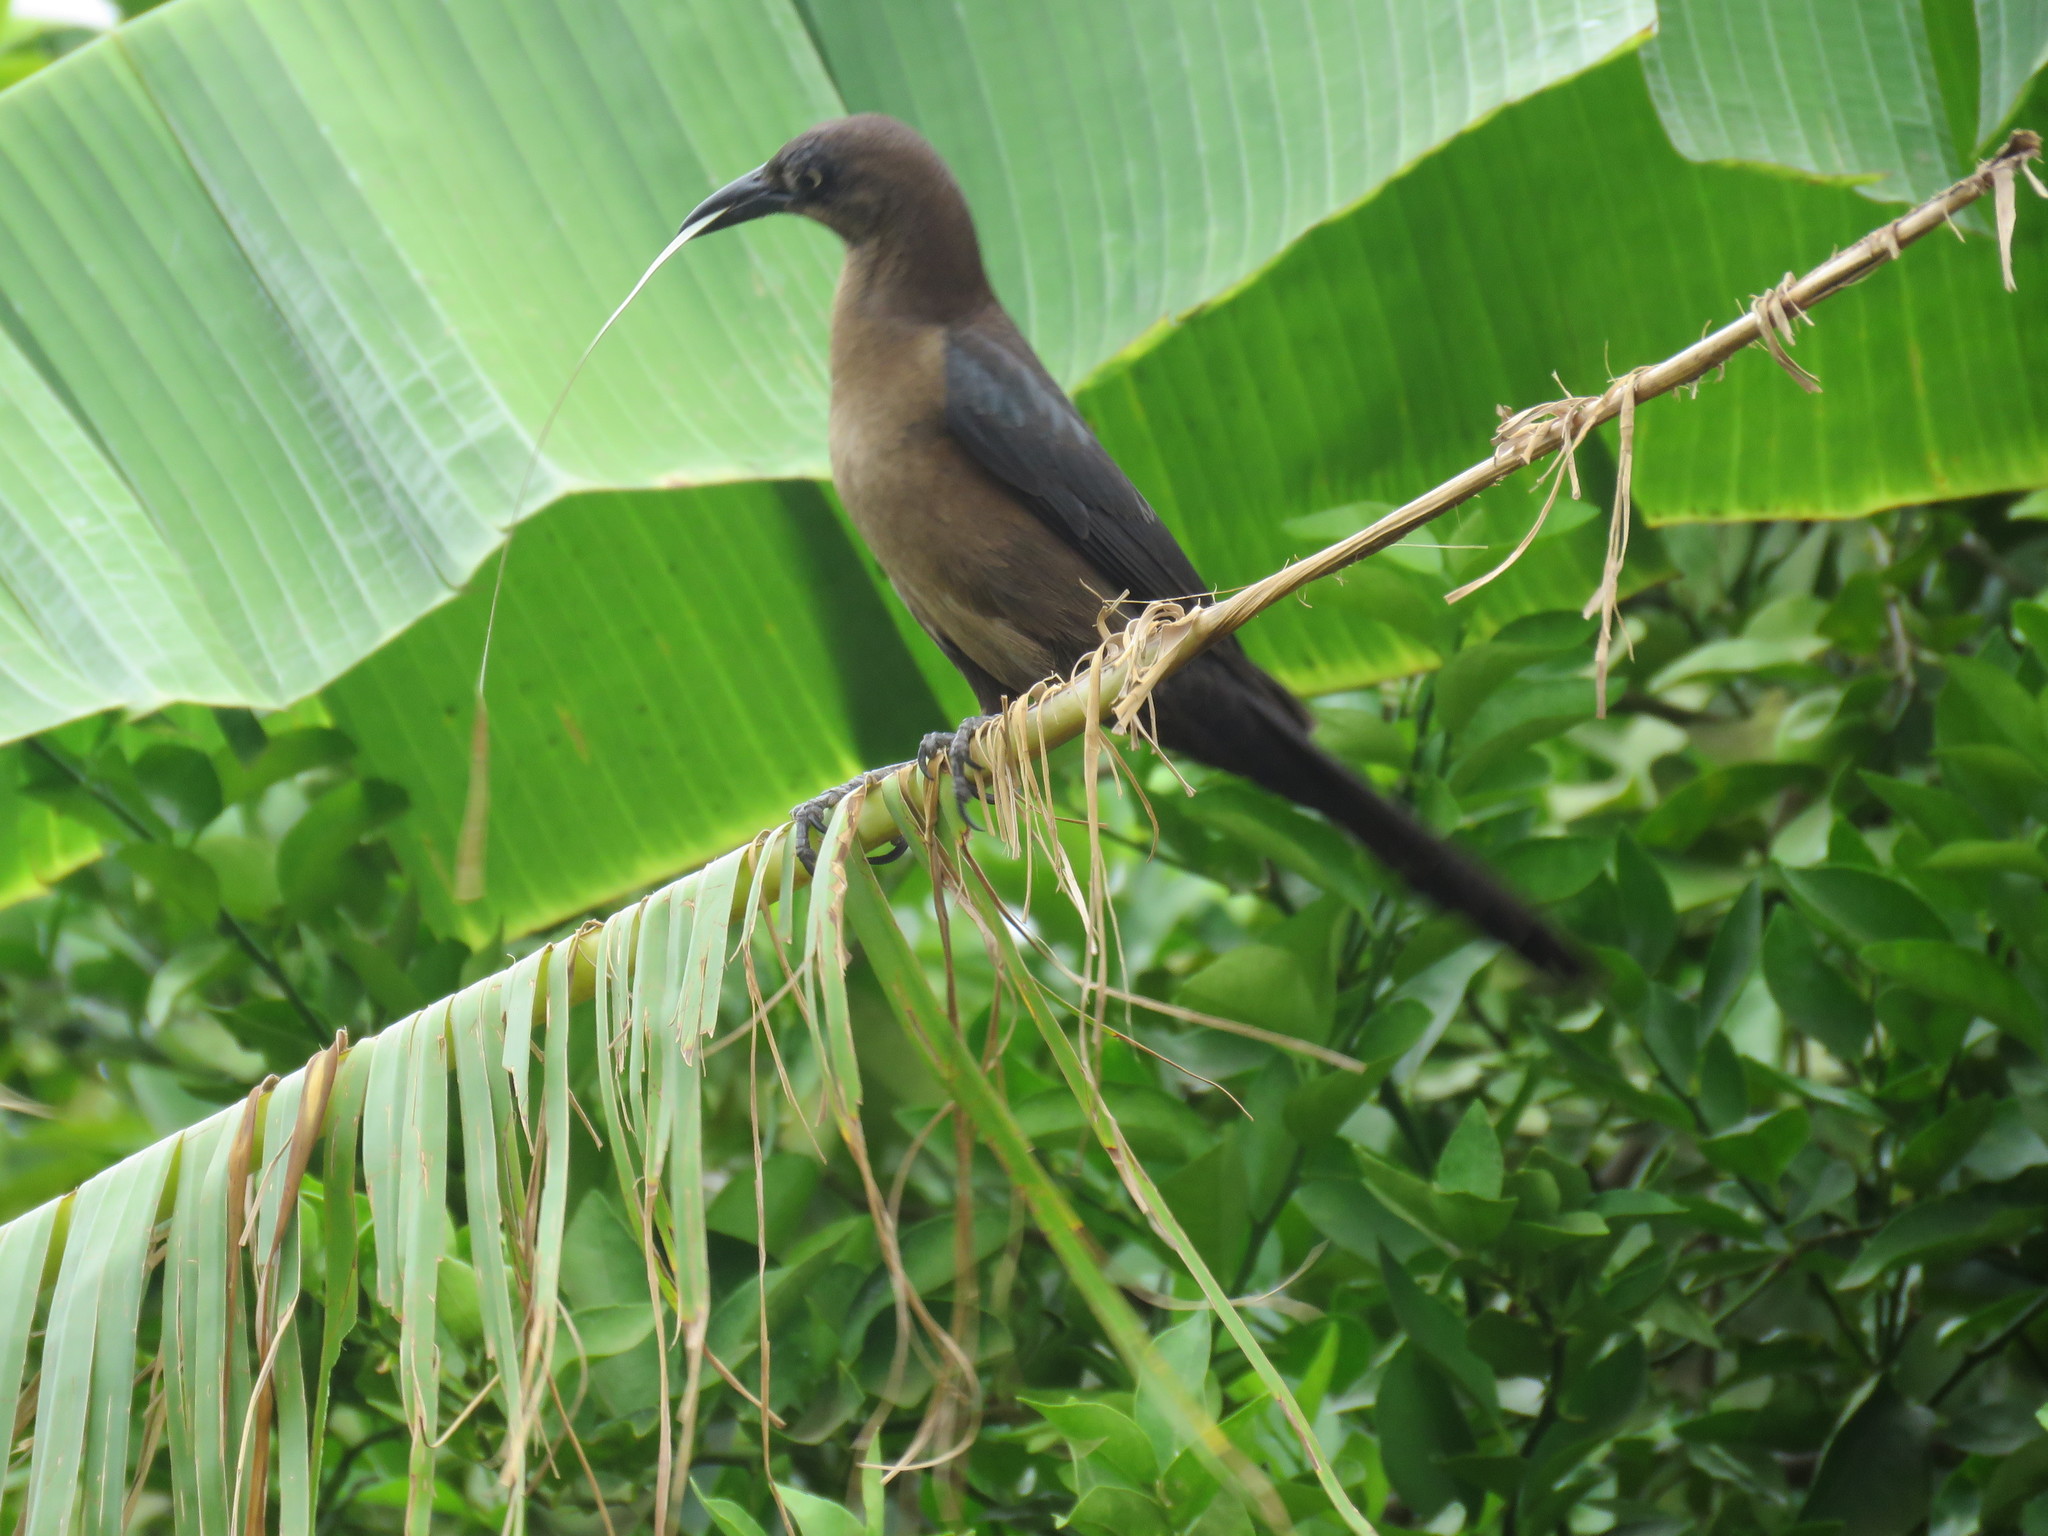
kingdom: Animalia
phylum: Chordata
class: Aves
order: Passeriformes
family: Icteridae
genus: Quiscalus
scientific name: Quiscalus mexicanus
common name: Great-tailed grackle
